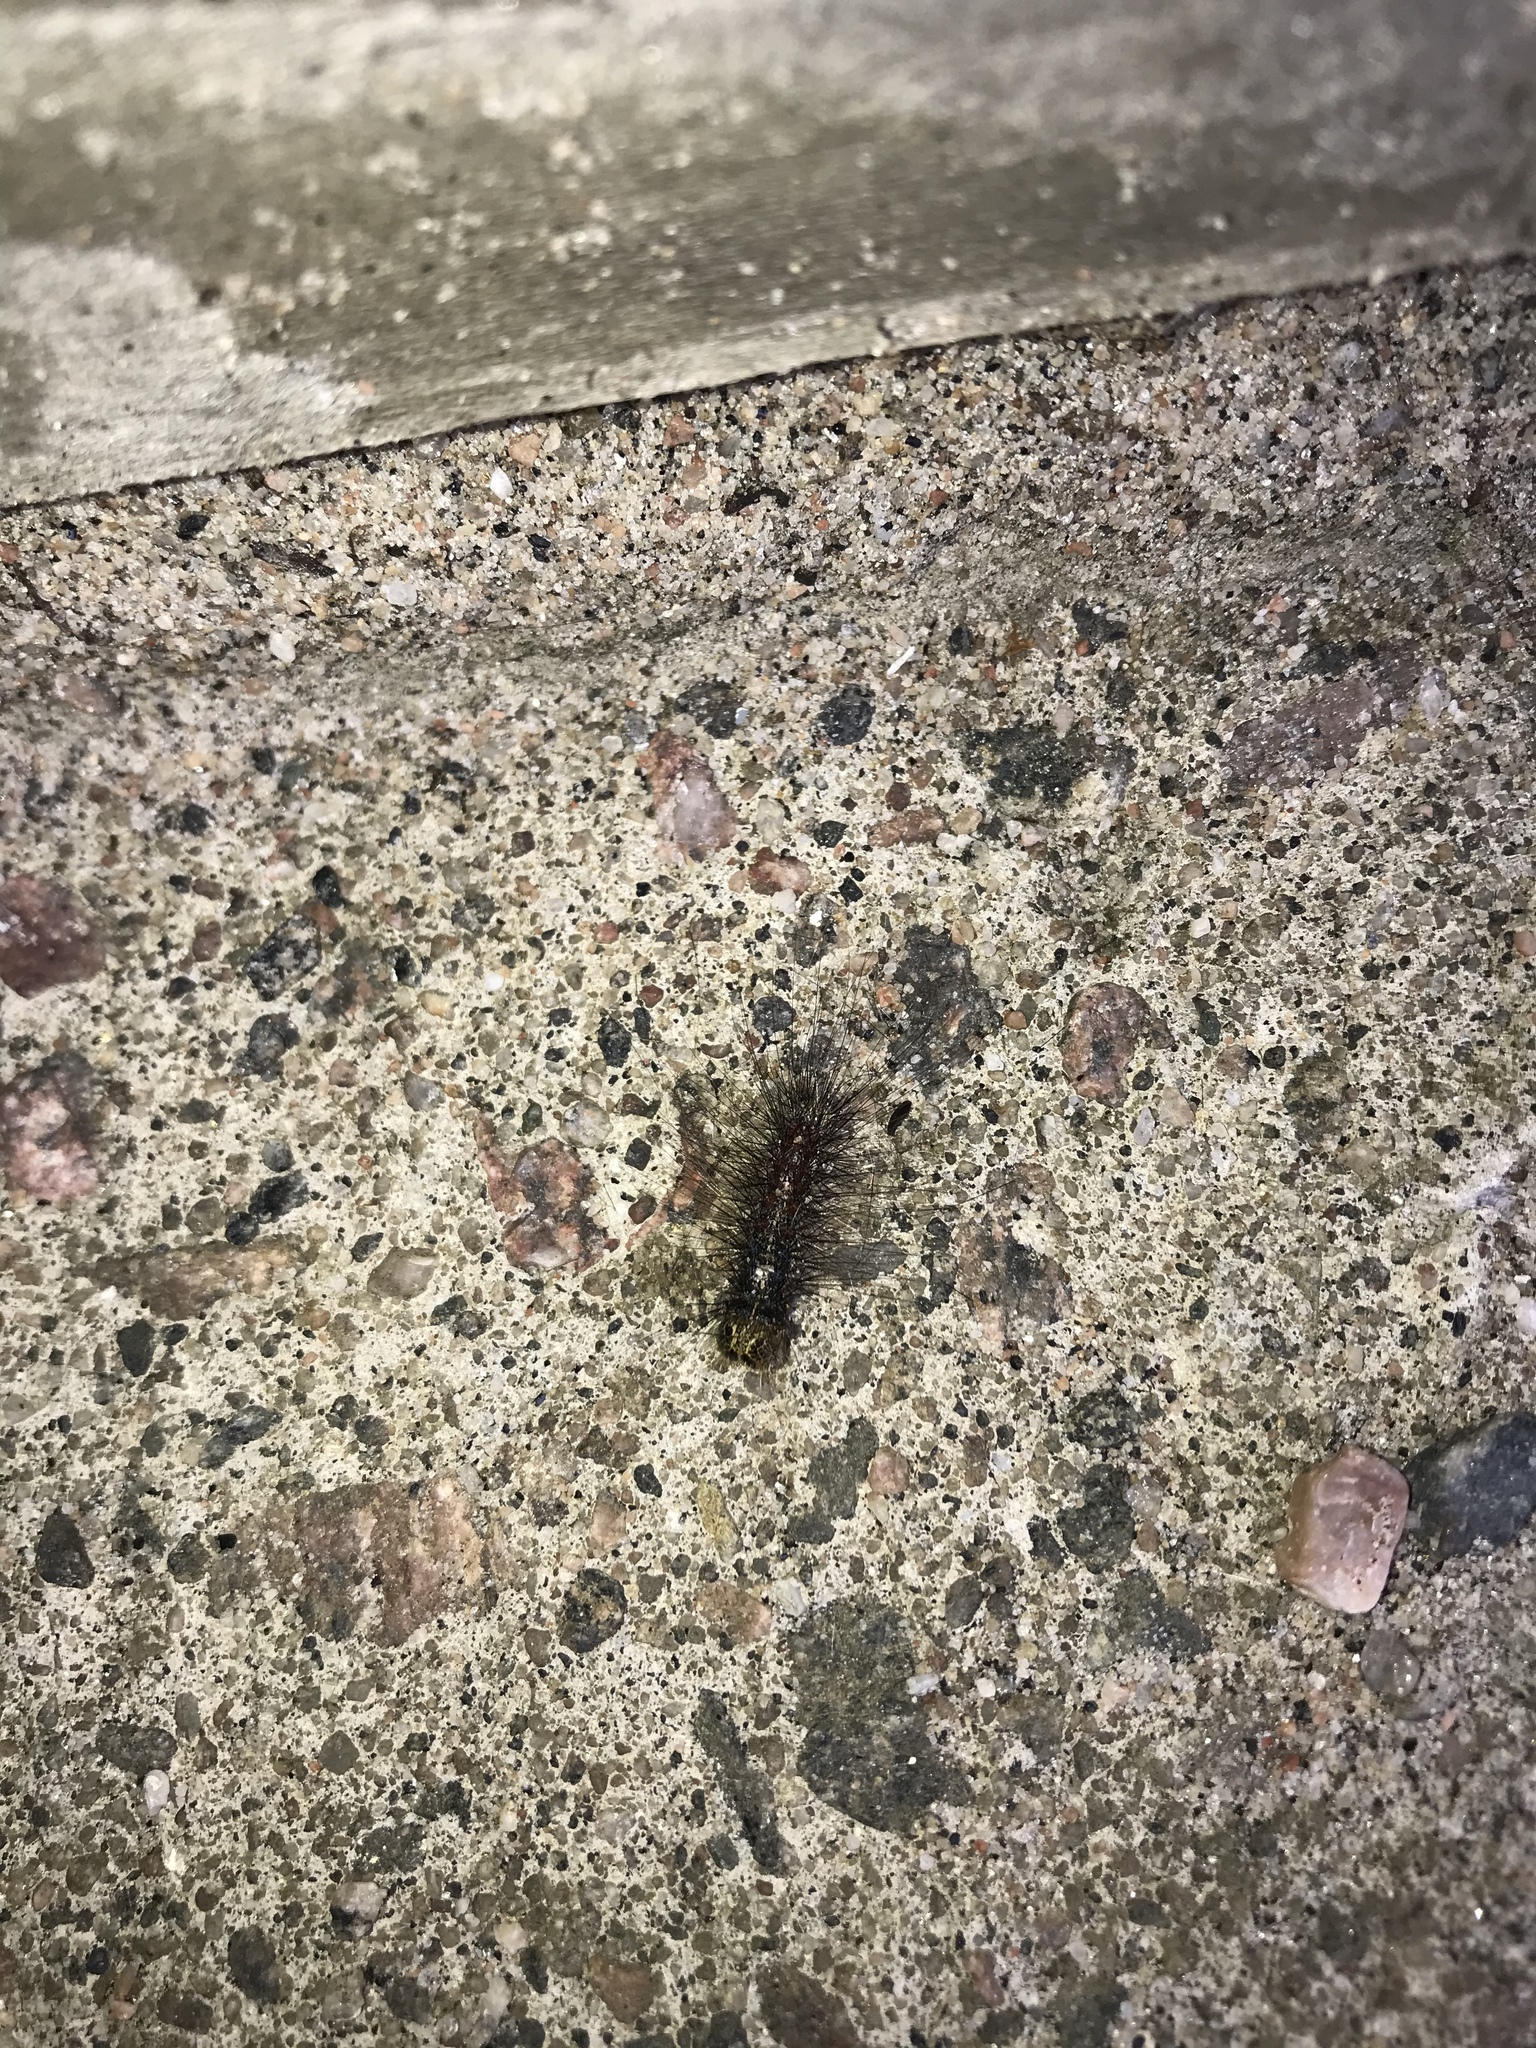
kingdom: Animalia
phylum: Arthropoda
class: Insecta
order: Lepidoptera
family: Erebidae
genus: Lymantria
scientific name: Lymantria dispar
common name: Gypsy moth
